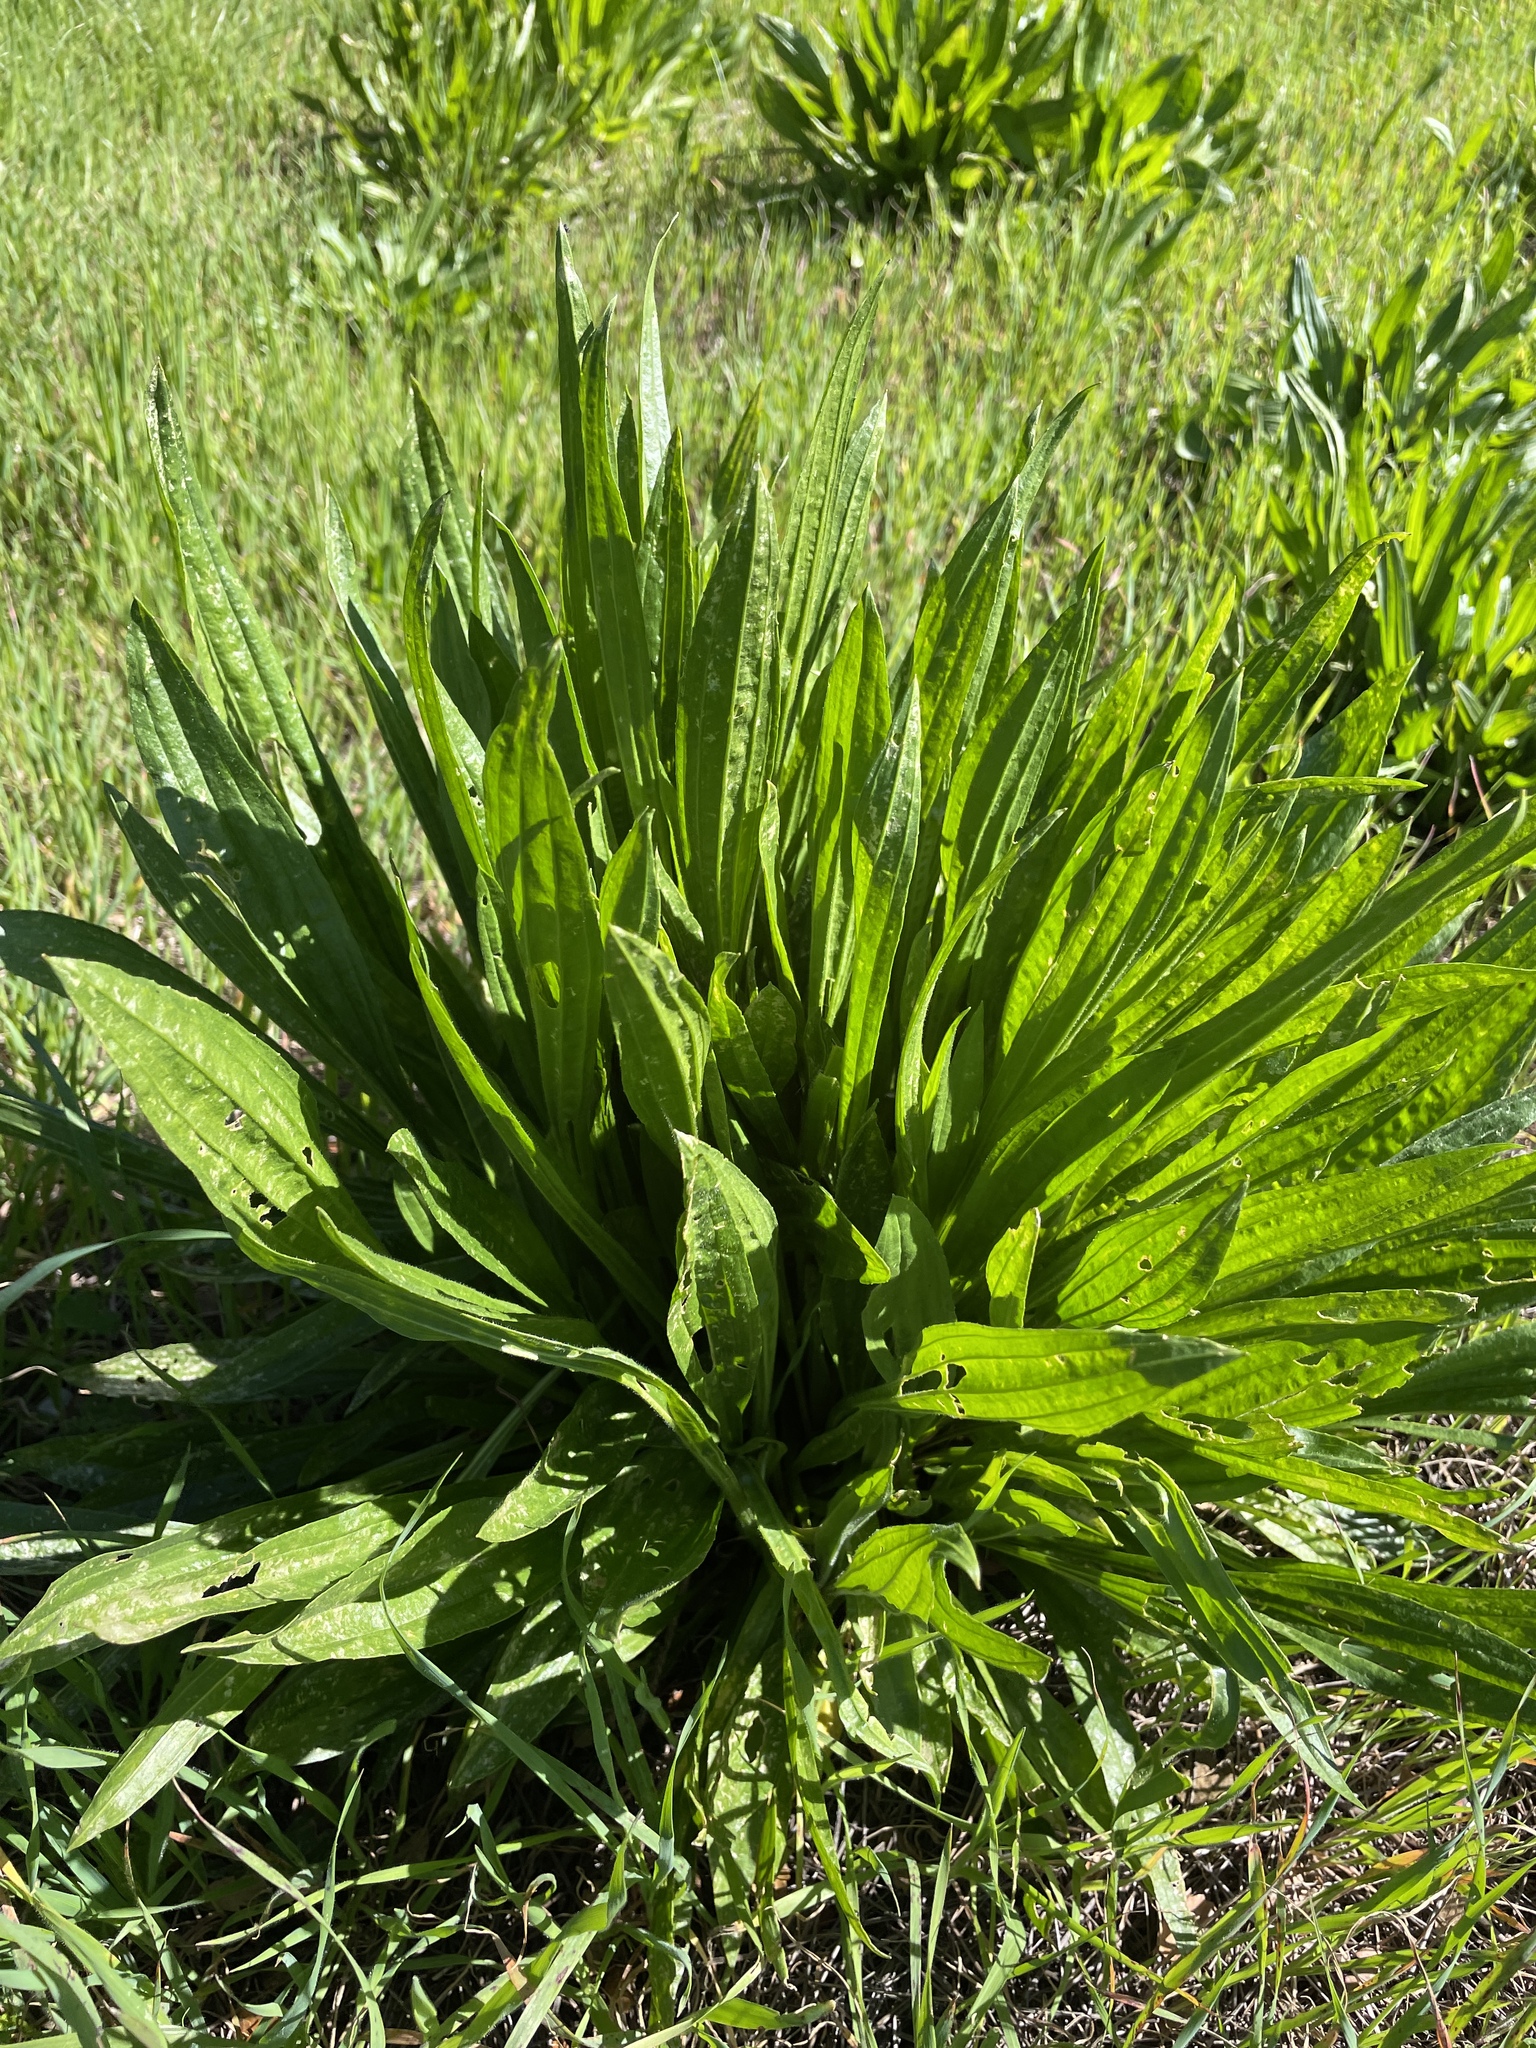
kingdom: Plantae
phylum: Tracheophyta
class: Magnoliopsida
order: Lamiales
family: Plantaginaceae
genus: Plantago
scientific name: Plantago lanceolata
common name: Ribwort plantain
